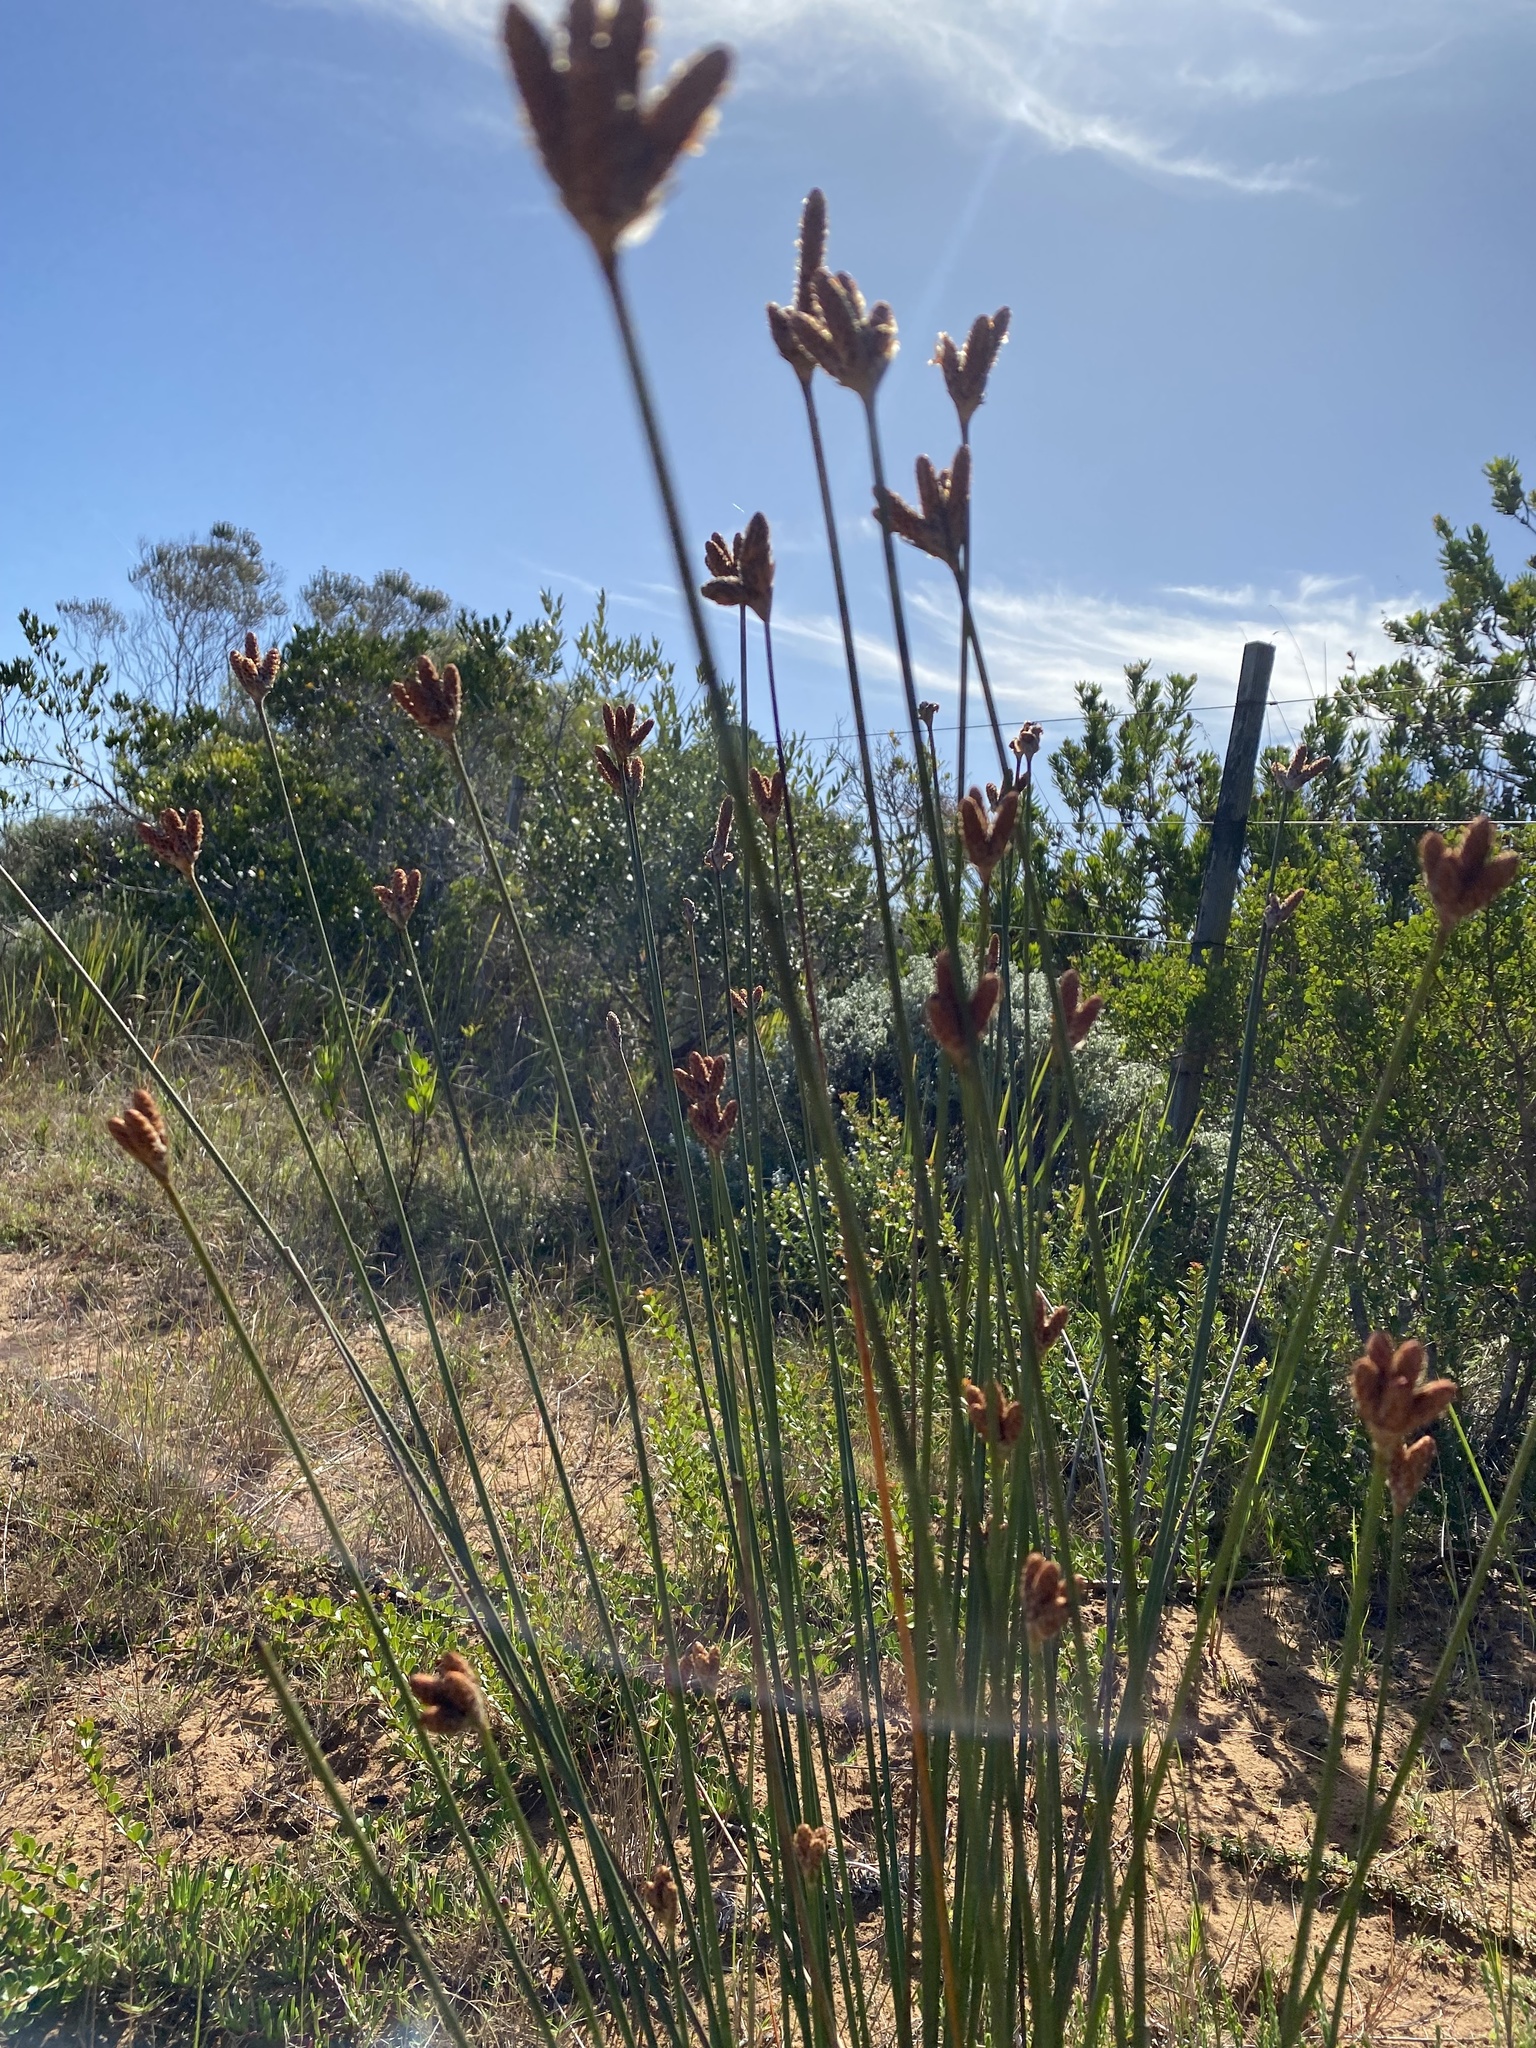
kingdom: Plantae
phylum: Tracheophyta
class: Liliopsida
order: Poales
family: Cyperaceae
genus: Hellmuthia
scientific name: Hellmuthia membranacea
